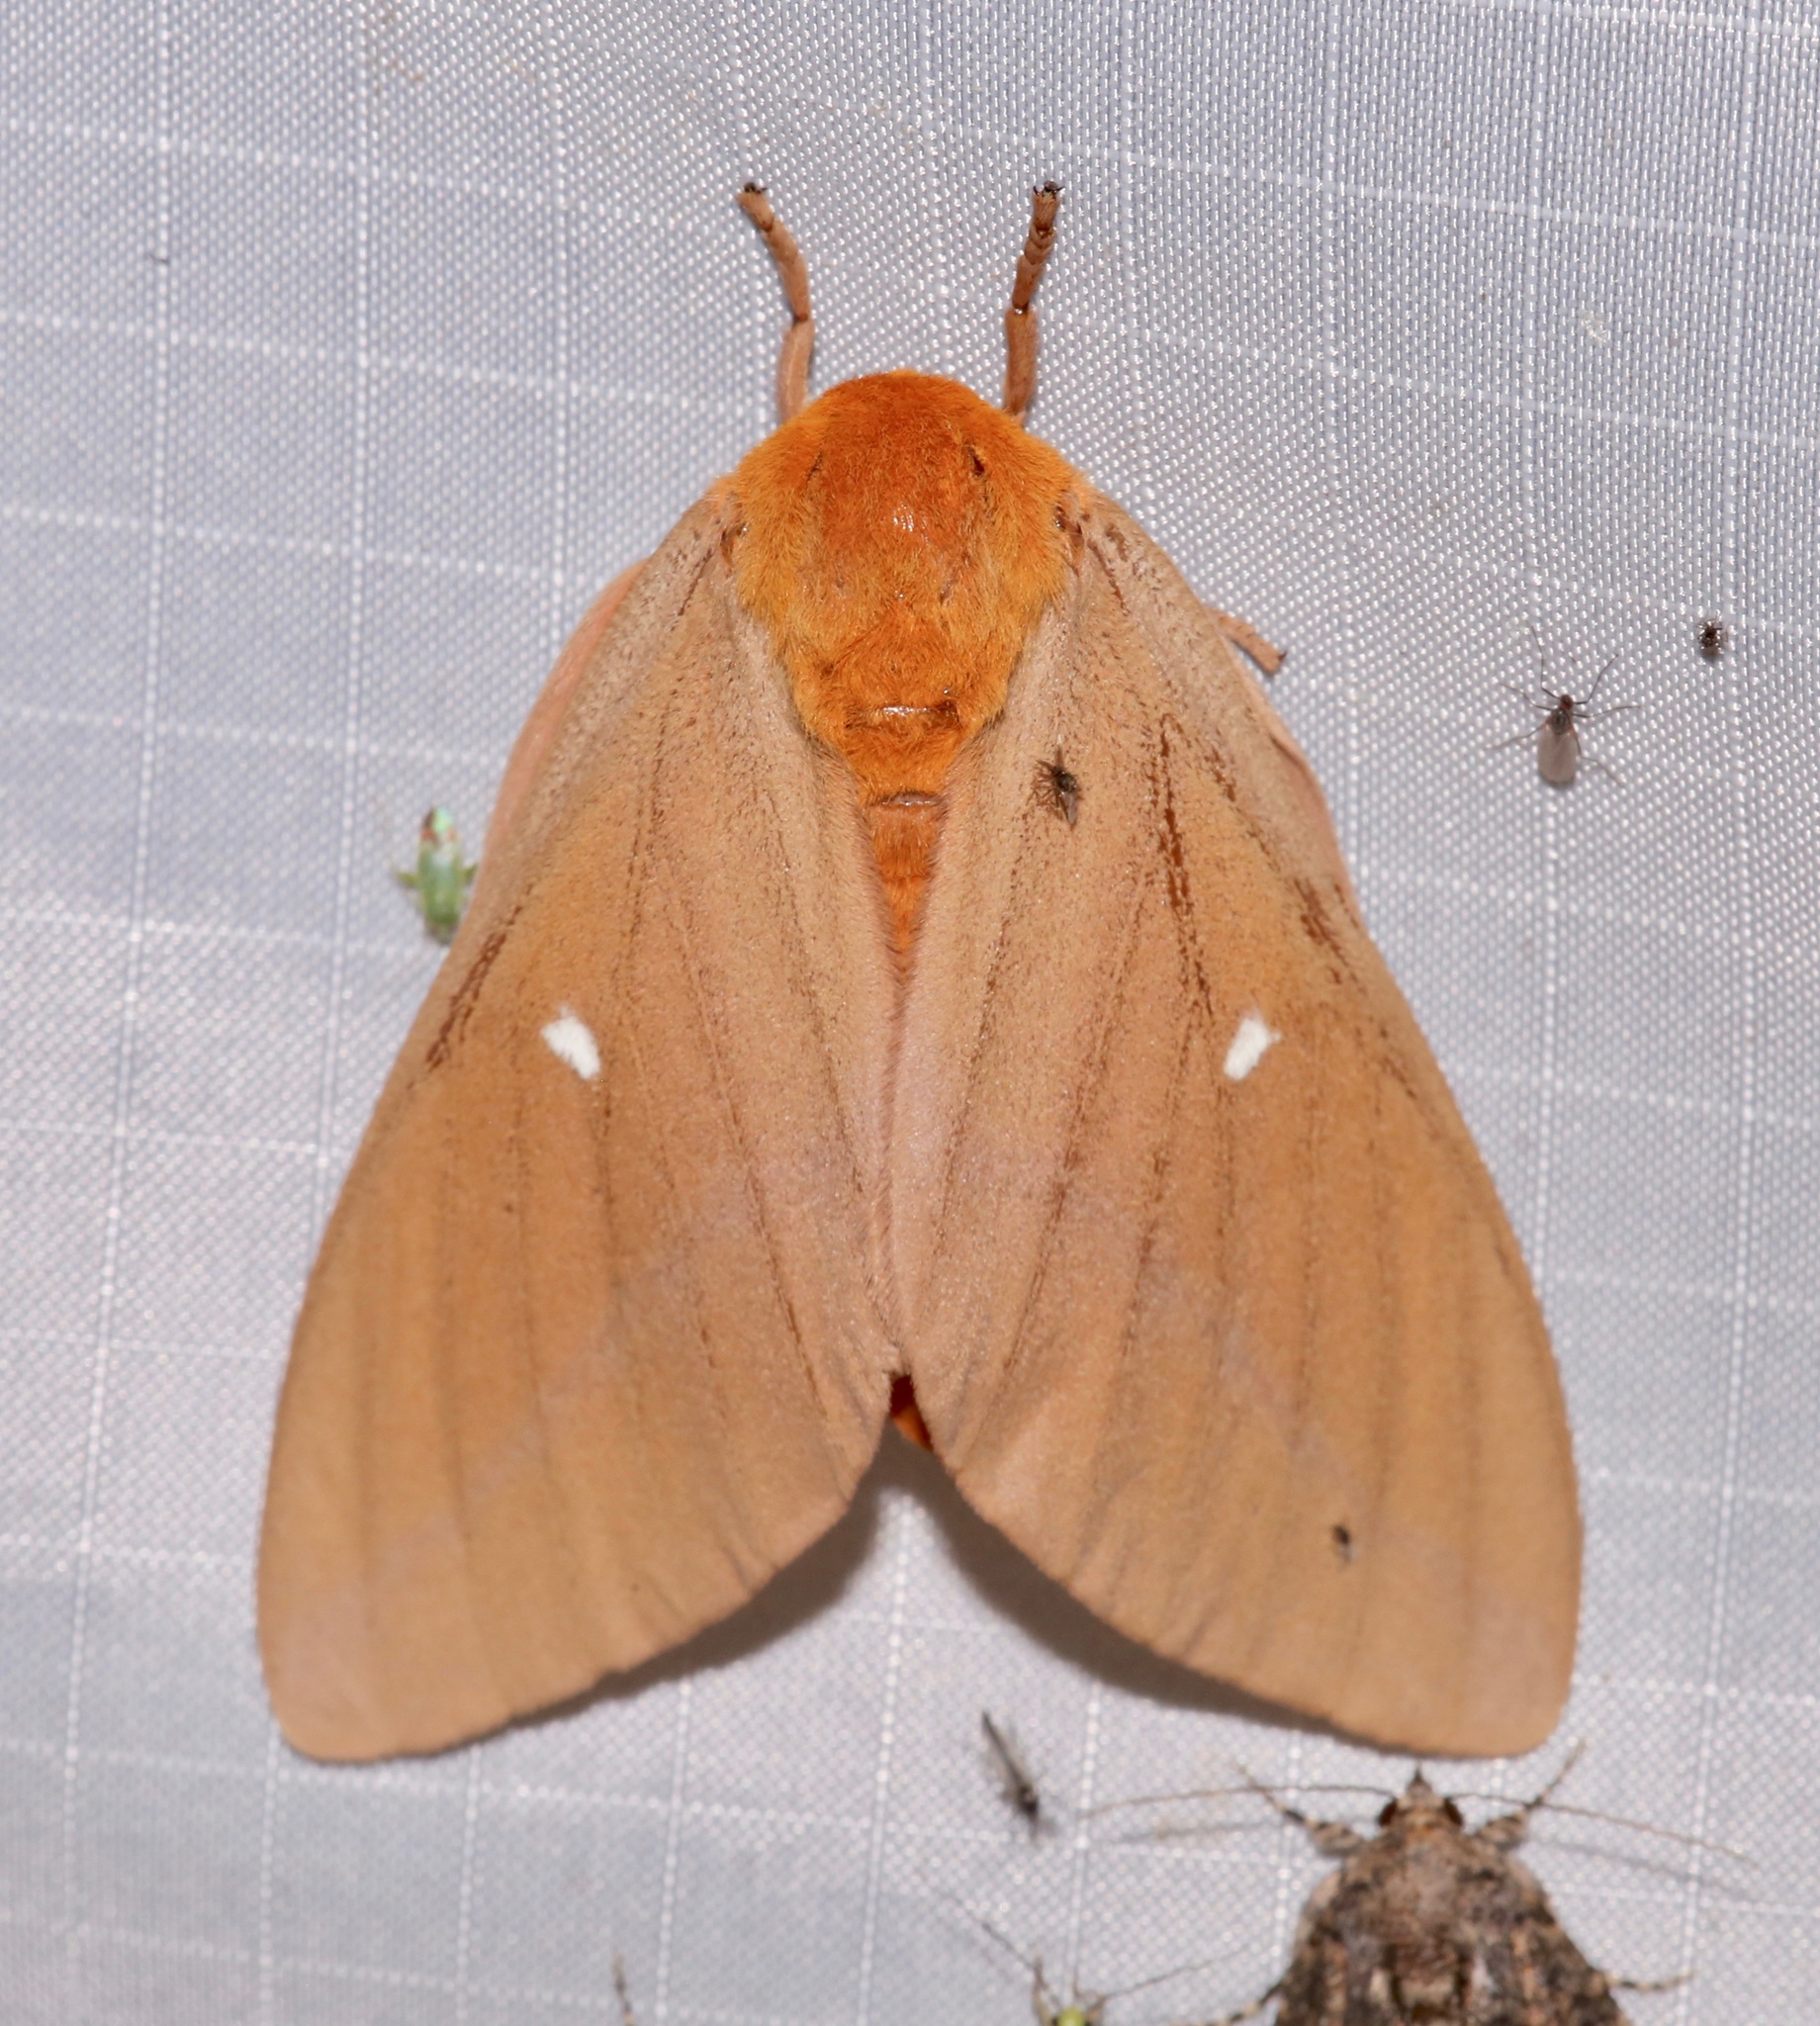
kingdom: Animalia
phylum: Arthropoda
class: Insecta
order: Lepidoptera
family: Saturniidae
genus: Anisota
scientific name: Anisota oslari
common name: Oslar's oakworm moth
